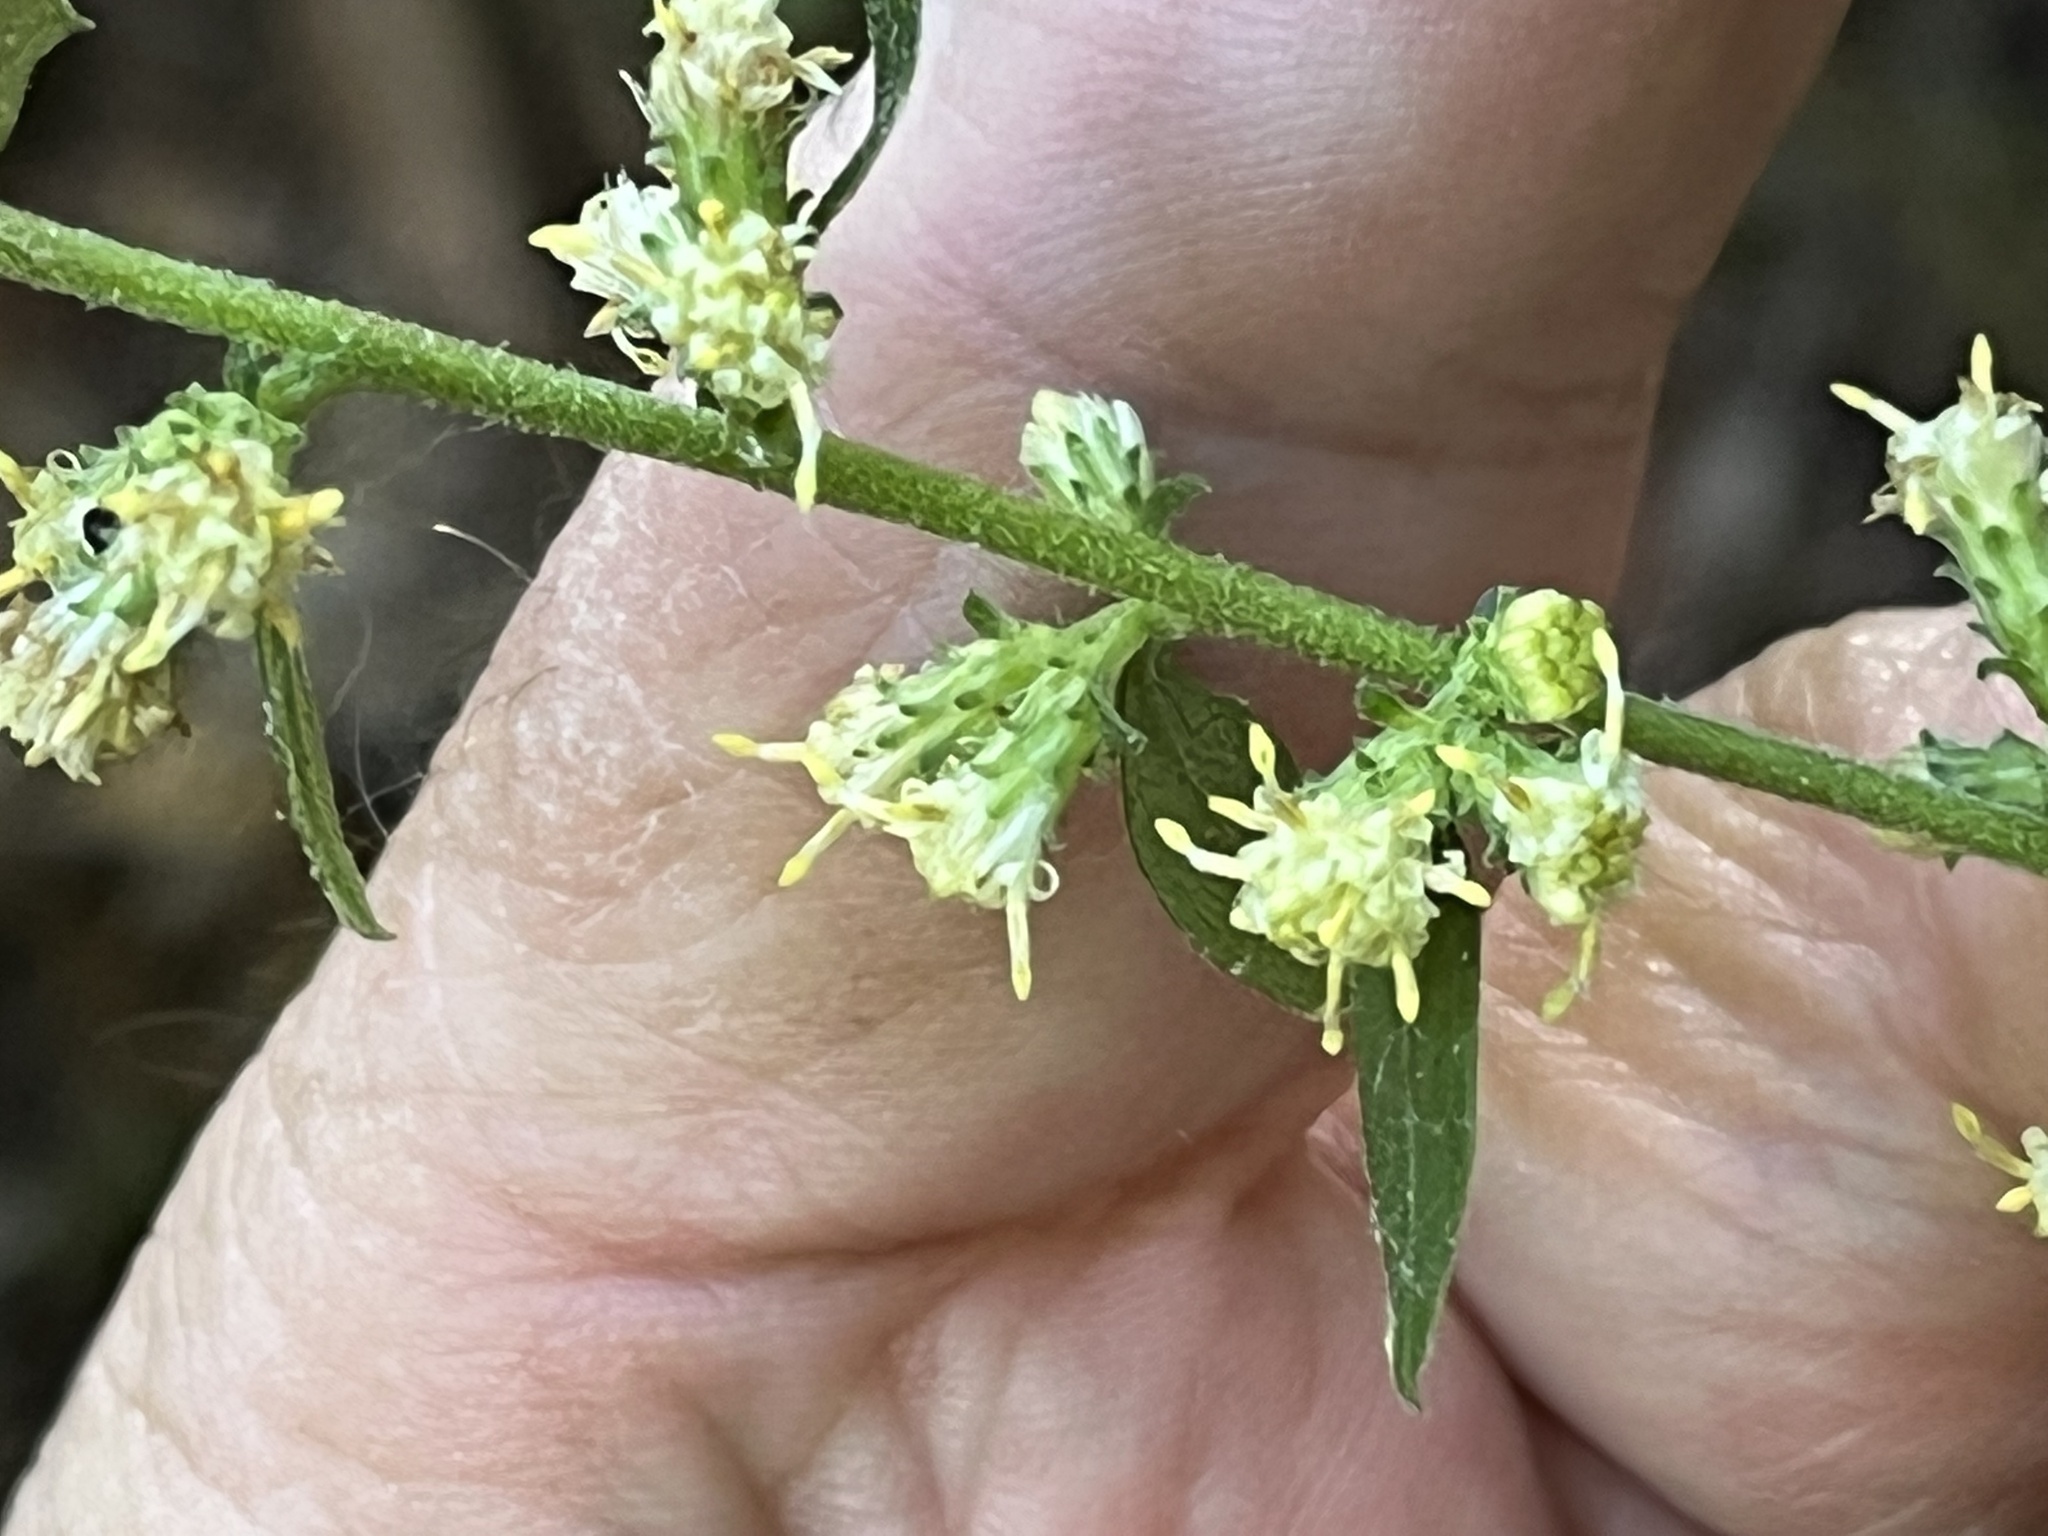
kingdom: Plantae
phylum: Tracheophyta
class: Magnoliopsida
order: Asterales
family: Asteraceae
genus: Solidago
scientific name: Solidago discoidea
